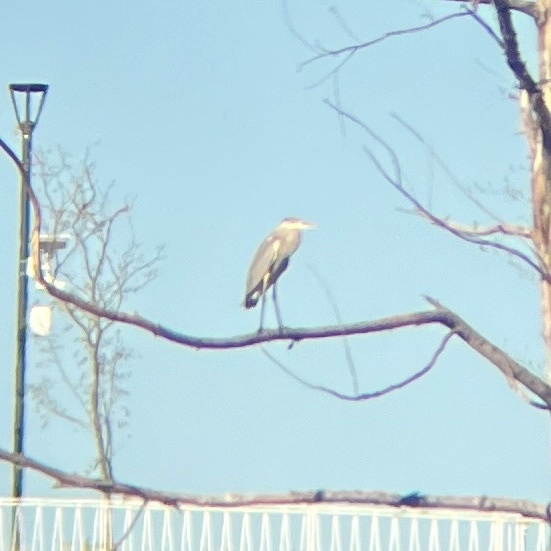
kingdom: Animalia
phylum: Chordata
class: Aves
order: Pelecaniformes
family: Ardeidae
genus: Ardea
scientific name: Ardea herodias
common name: Great blue heron
